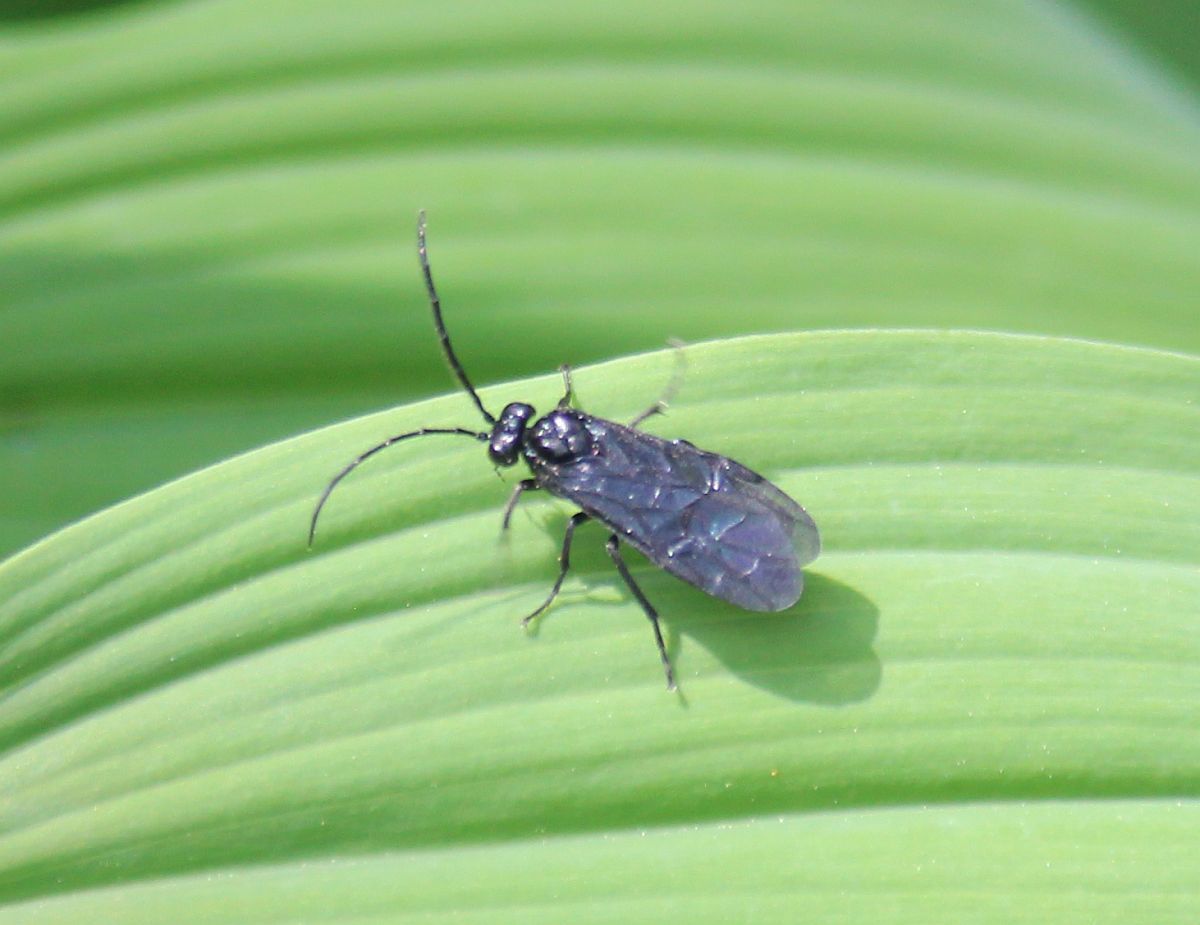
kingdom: Animalia
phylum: Arthropoda
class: Insecta
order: Hymenoptera
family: Tenthredinidae
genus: Phymatocera
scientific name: Phymatocera aterrima
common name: Solomon's-seal sawfly
